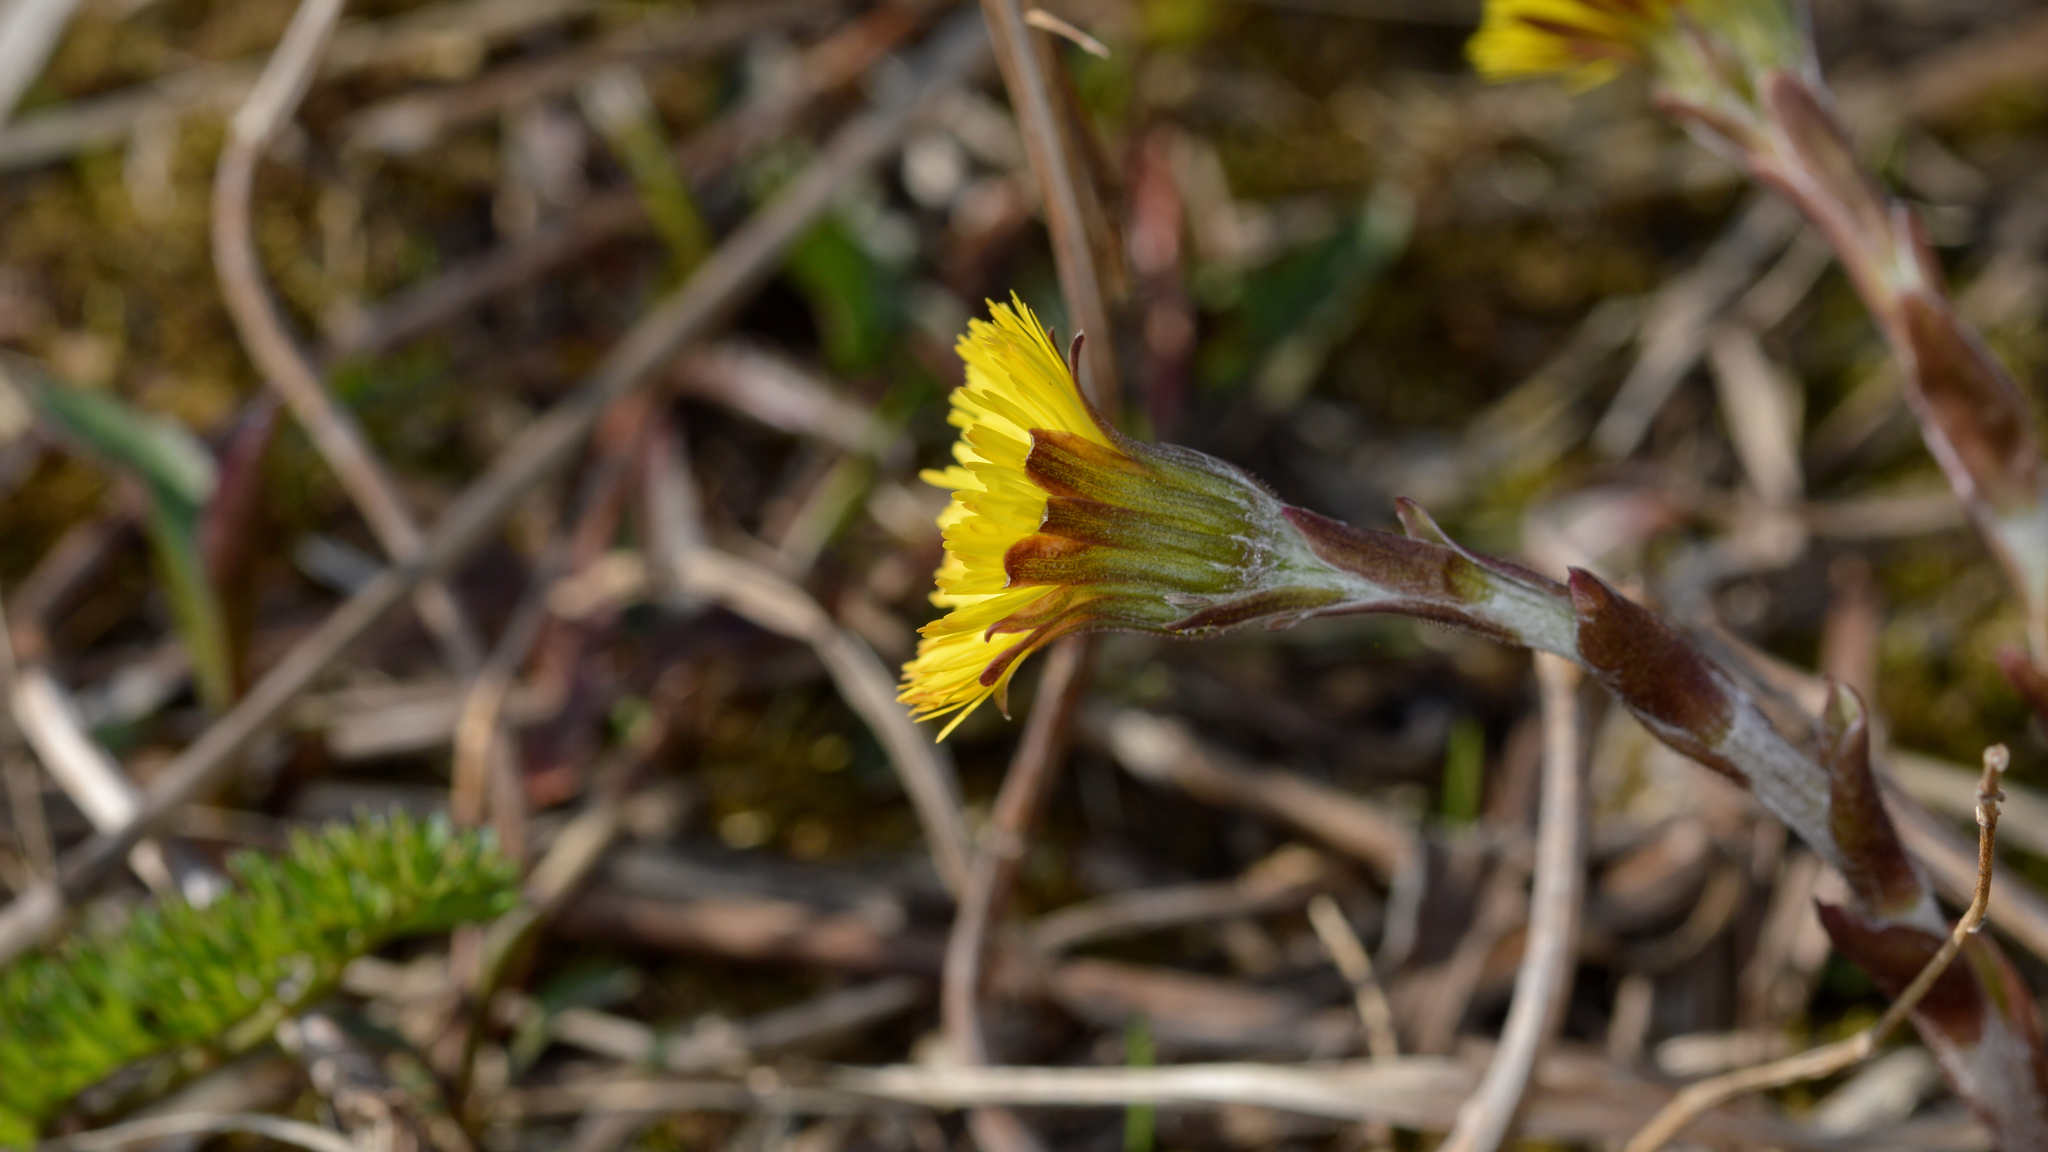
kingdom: Plantae
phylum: Tracheophyta
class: Magnoliopsida
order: Asterales
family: Asteraceae
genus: Tussilago
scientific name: Tussilago farfara
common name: Coltsfoot
